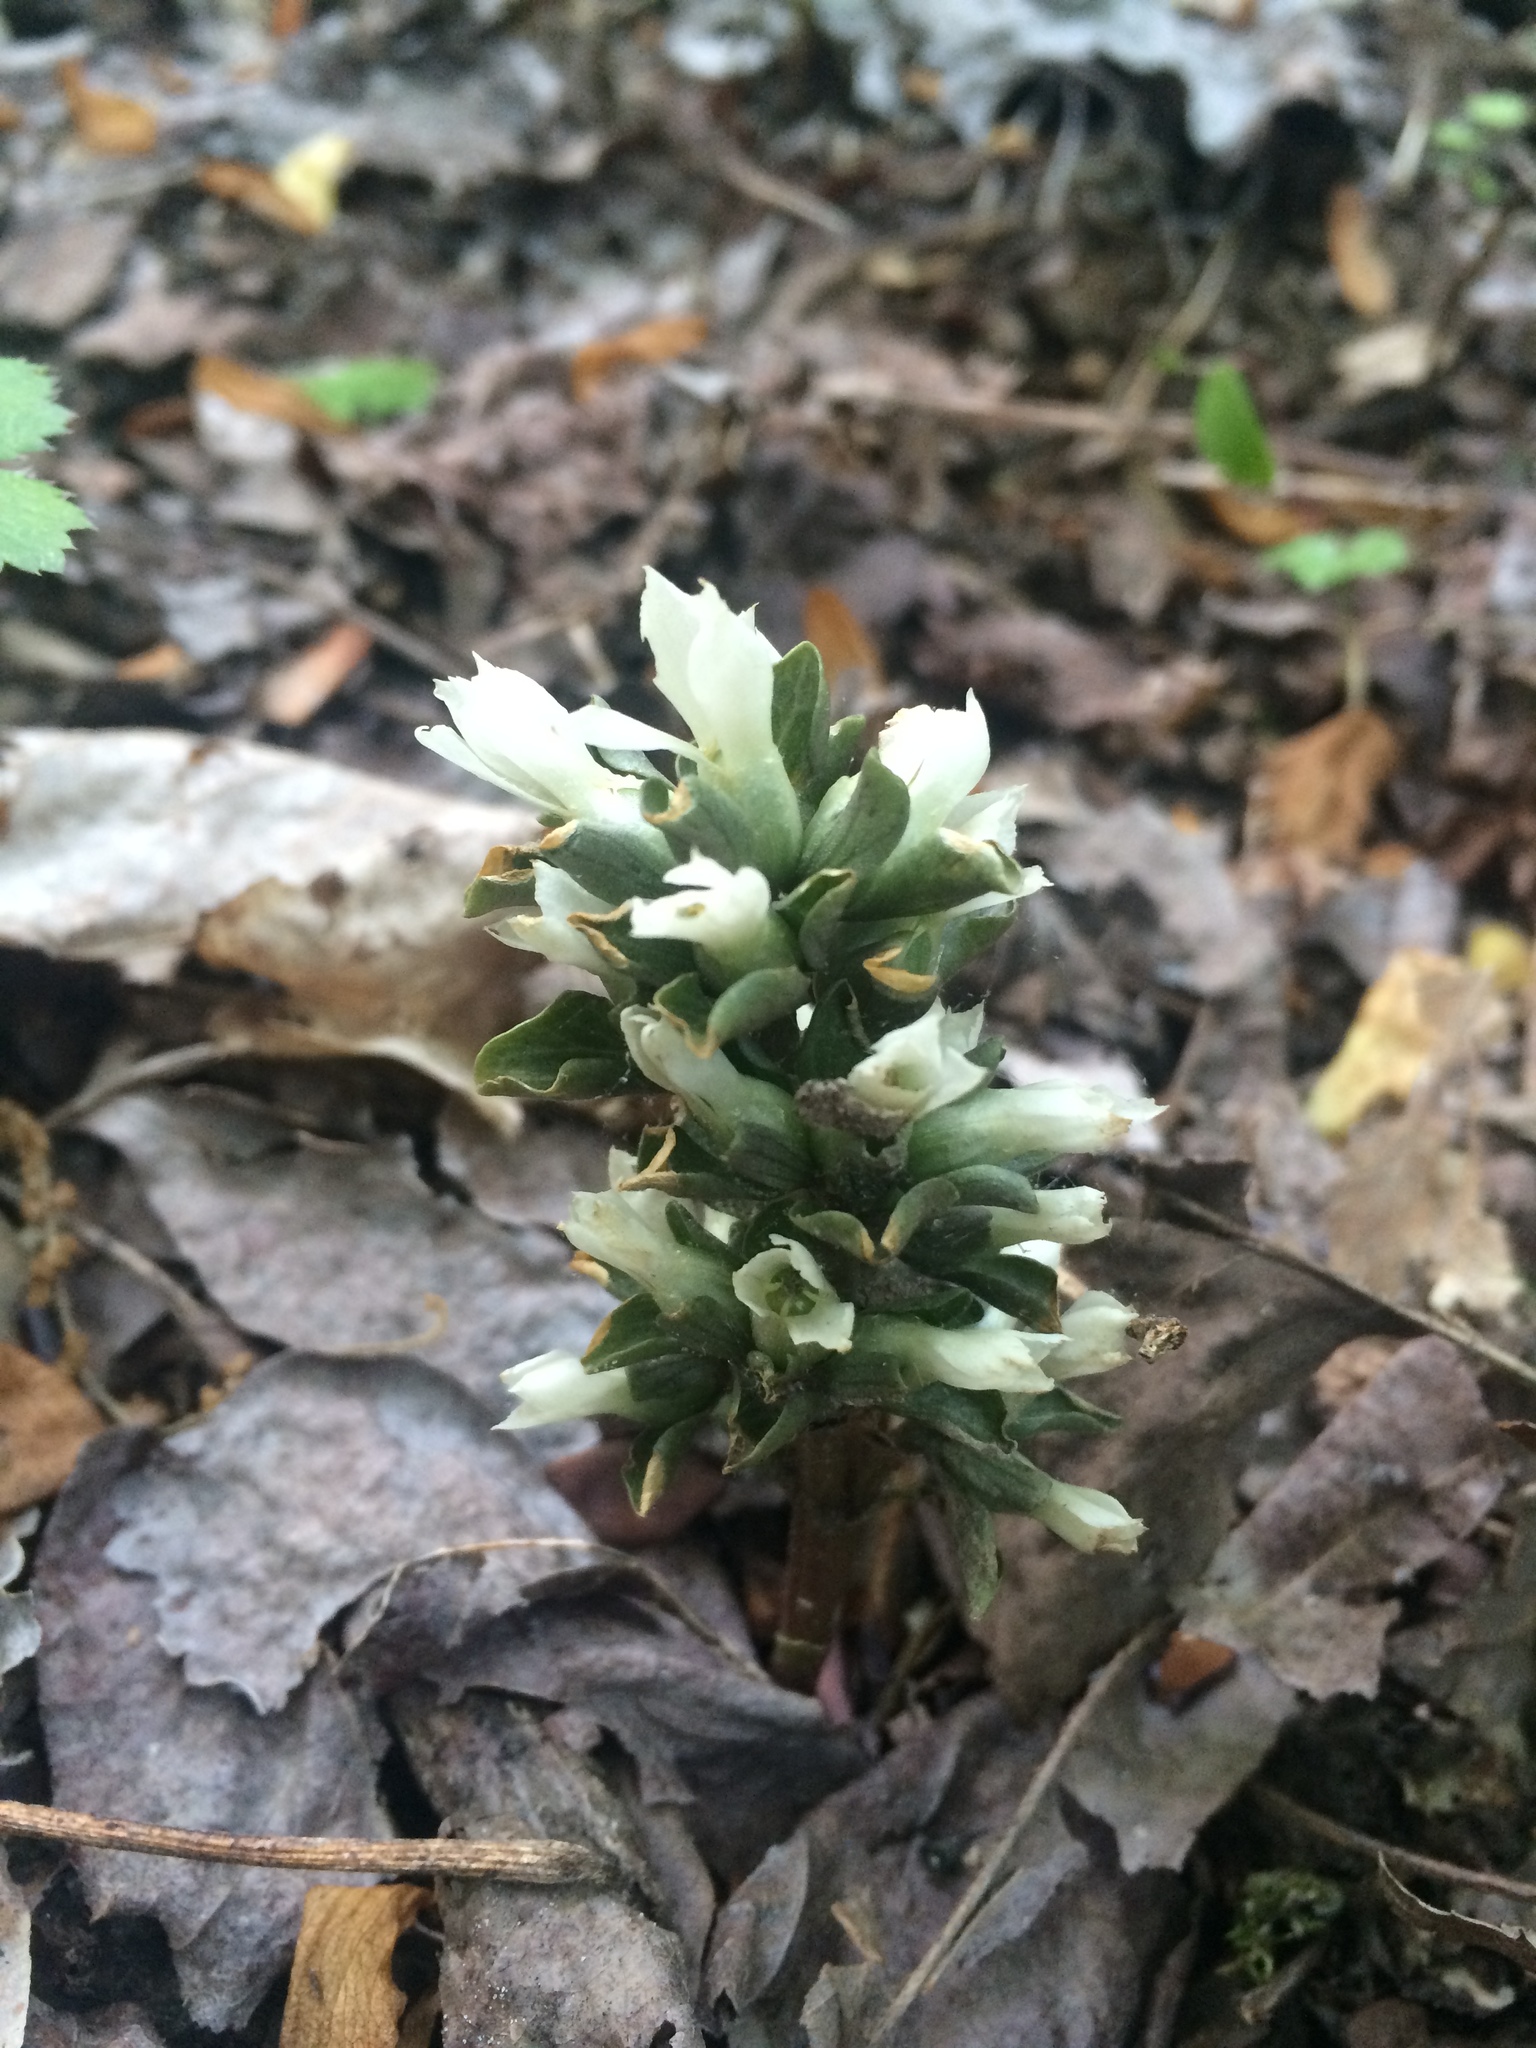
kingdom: Plantae
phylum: Tracheophyta
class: Magnoliopsida
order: Gentianales
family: Gentianaceae
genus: Obolaria
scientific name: Obolaria virginica
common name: Pennywort
